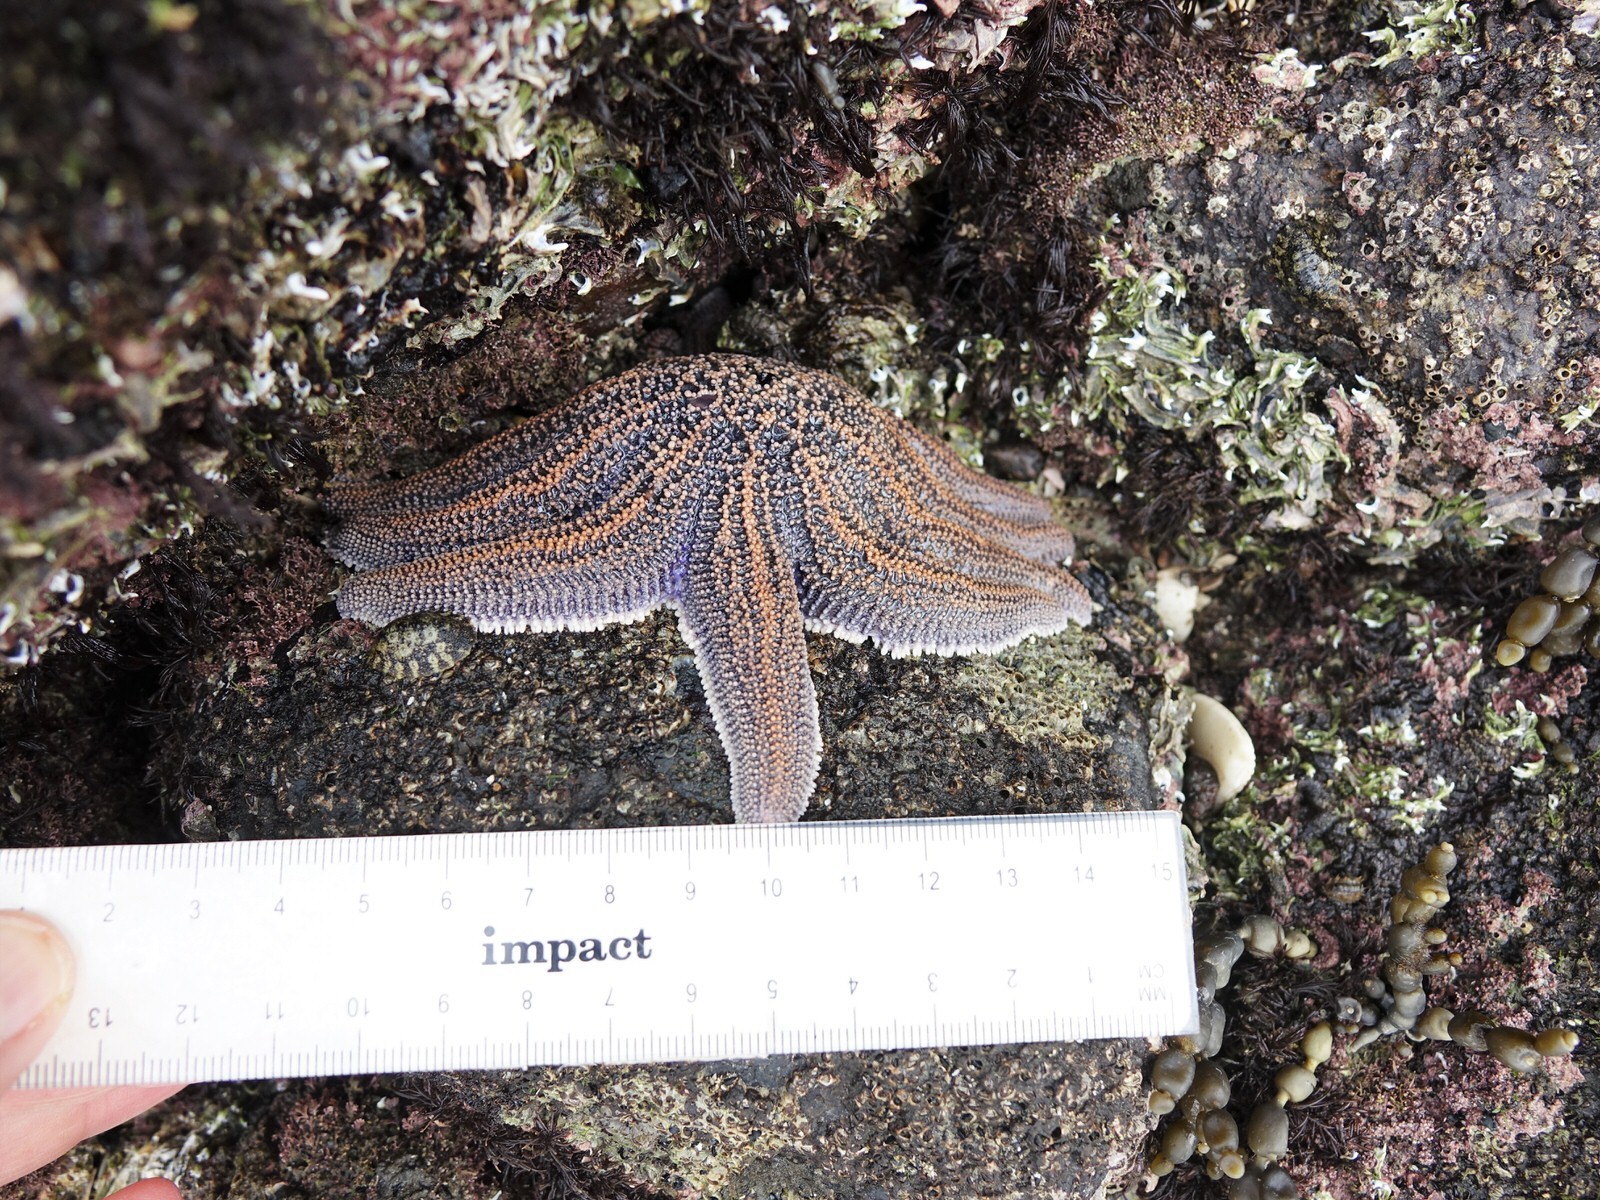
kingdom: Animalia
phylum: Echinodermata
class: Asteroidea
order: Forcipulatida
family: Stichasteridae
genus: Stichaster
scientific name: Stichaster australis
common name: Reef starfish
